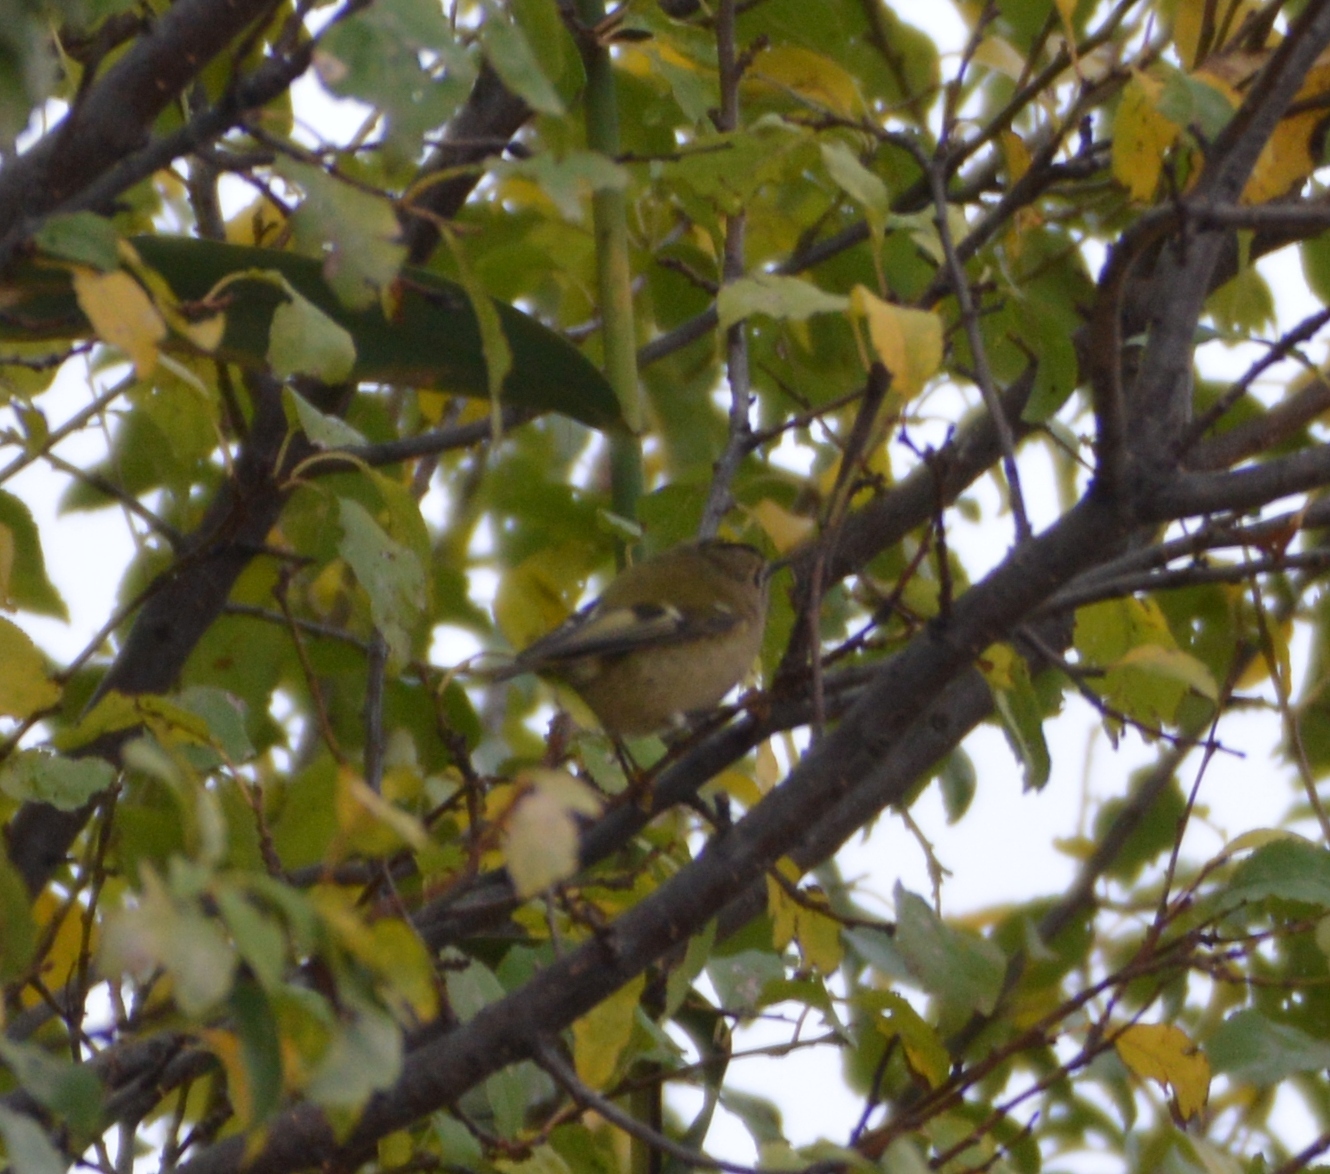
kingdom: Animalia
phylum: Chordata
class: Aves
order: Passeriformes
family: Regulidae
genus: Regulus
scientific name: Regulus regulus
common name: Goldcrest
